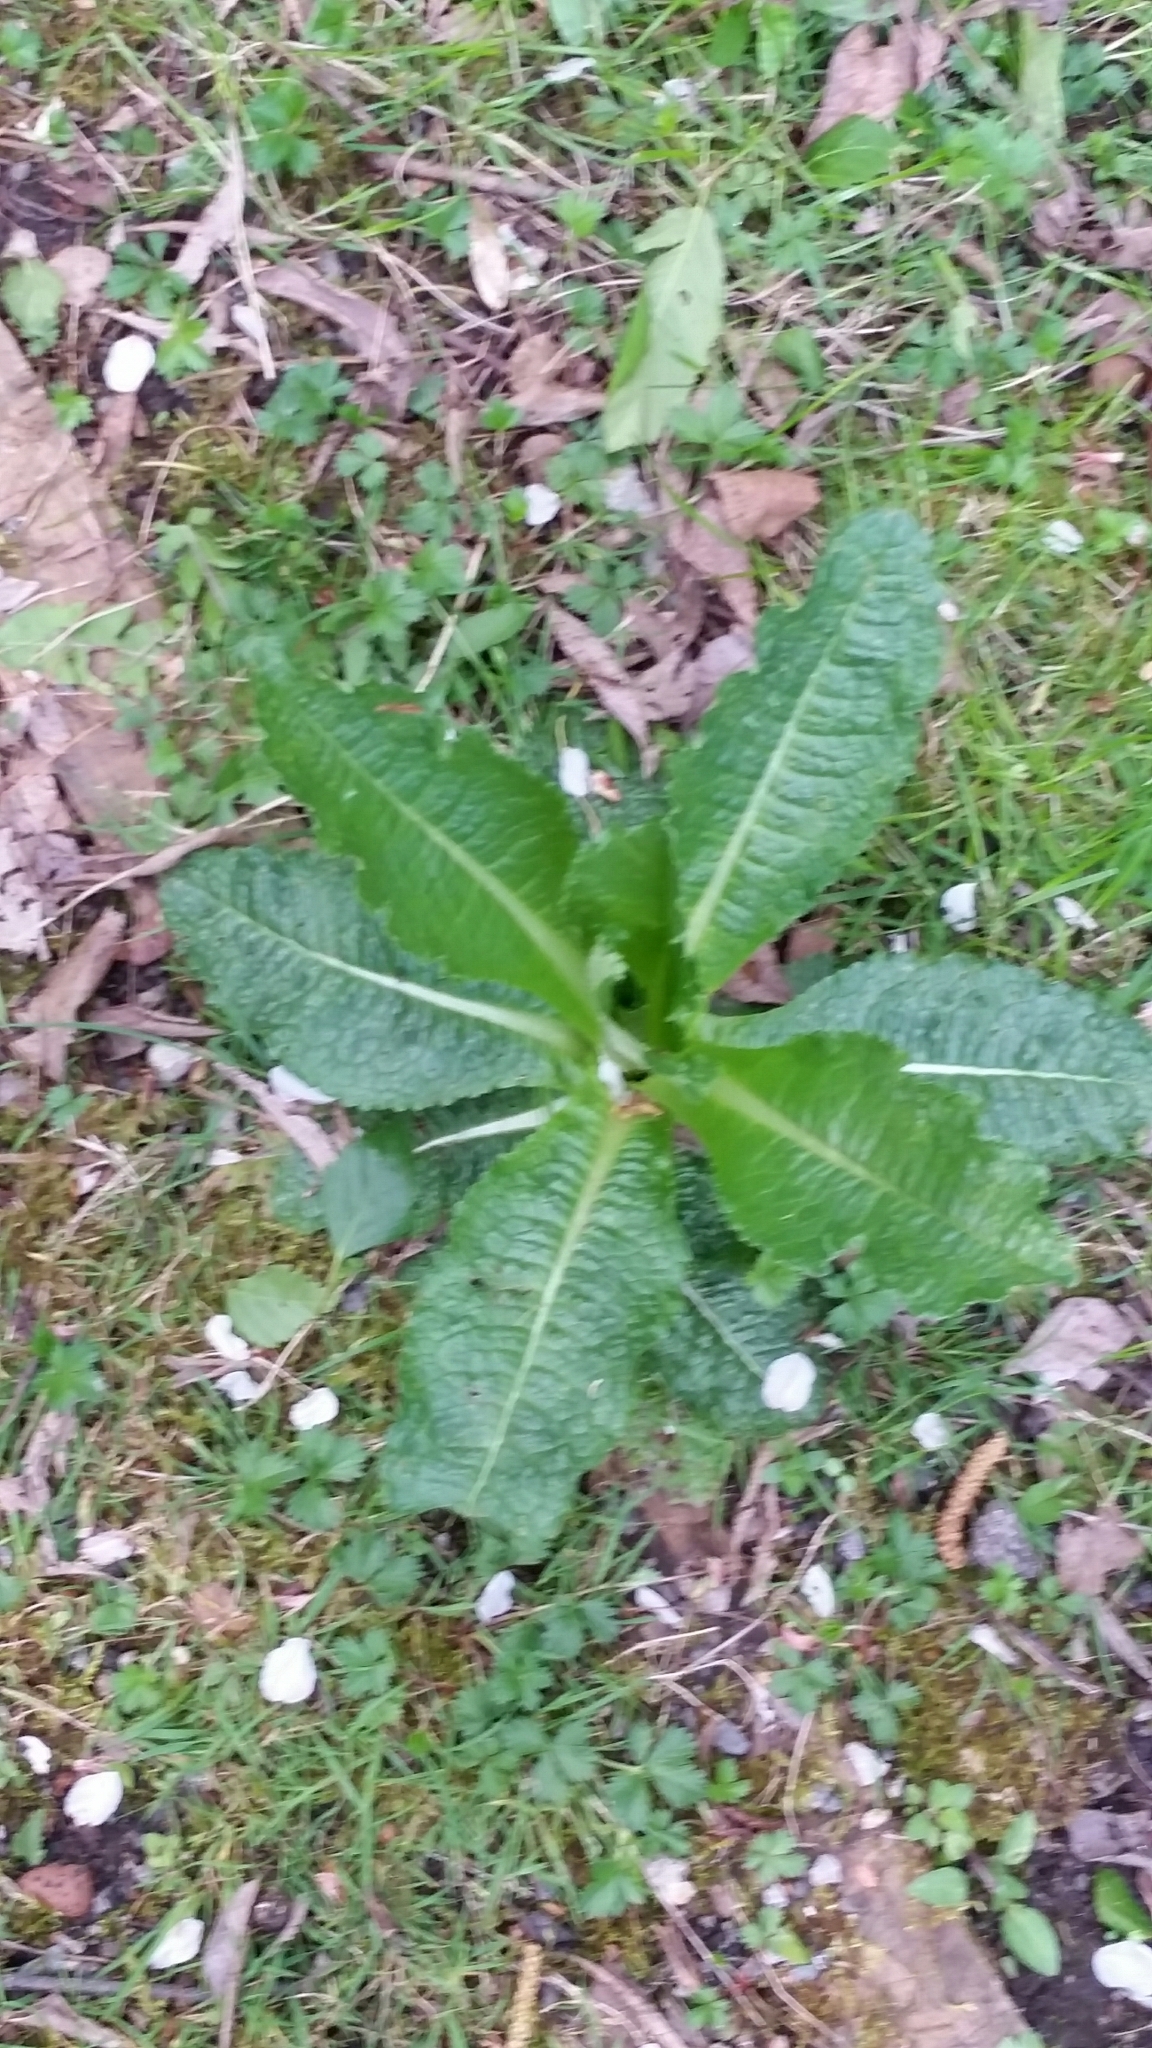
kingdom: Plantae
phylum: Tracheophyta
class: Magnoliopsida
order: Dipsacales
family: Caprifoliaceae
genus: Dipsacus
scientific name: Dipsacus fullonum
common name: Teasel
